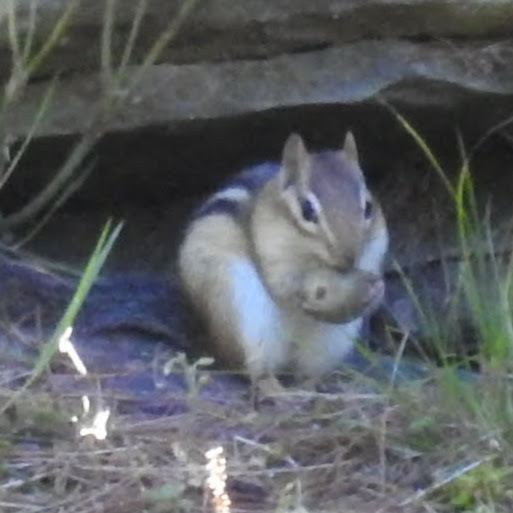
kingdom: Animalia
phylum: Chordata
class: Mammalia
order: Rodentia
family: Sciuridae
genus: Tamias
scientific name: Tamias striatus
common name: Eastern chipmunk
